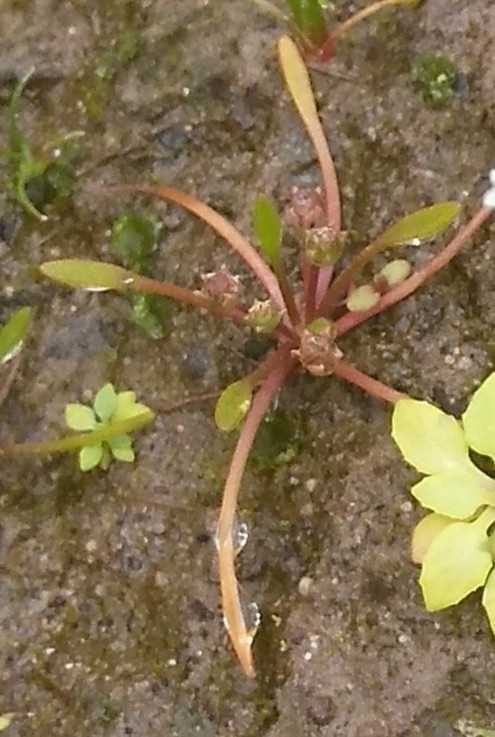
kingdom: Plantae
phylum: Tracheophyta
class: Magnoliopsida
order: Lamiales
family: Scrophulariaceae
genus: Limosella
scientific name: Limosella aquatica
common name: Mudwort
